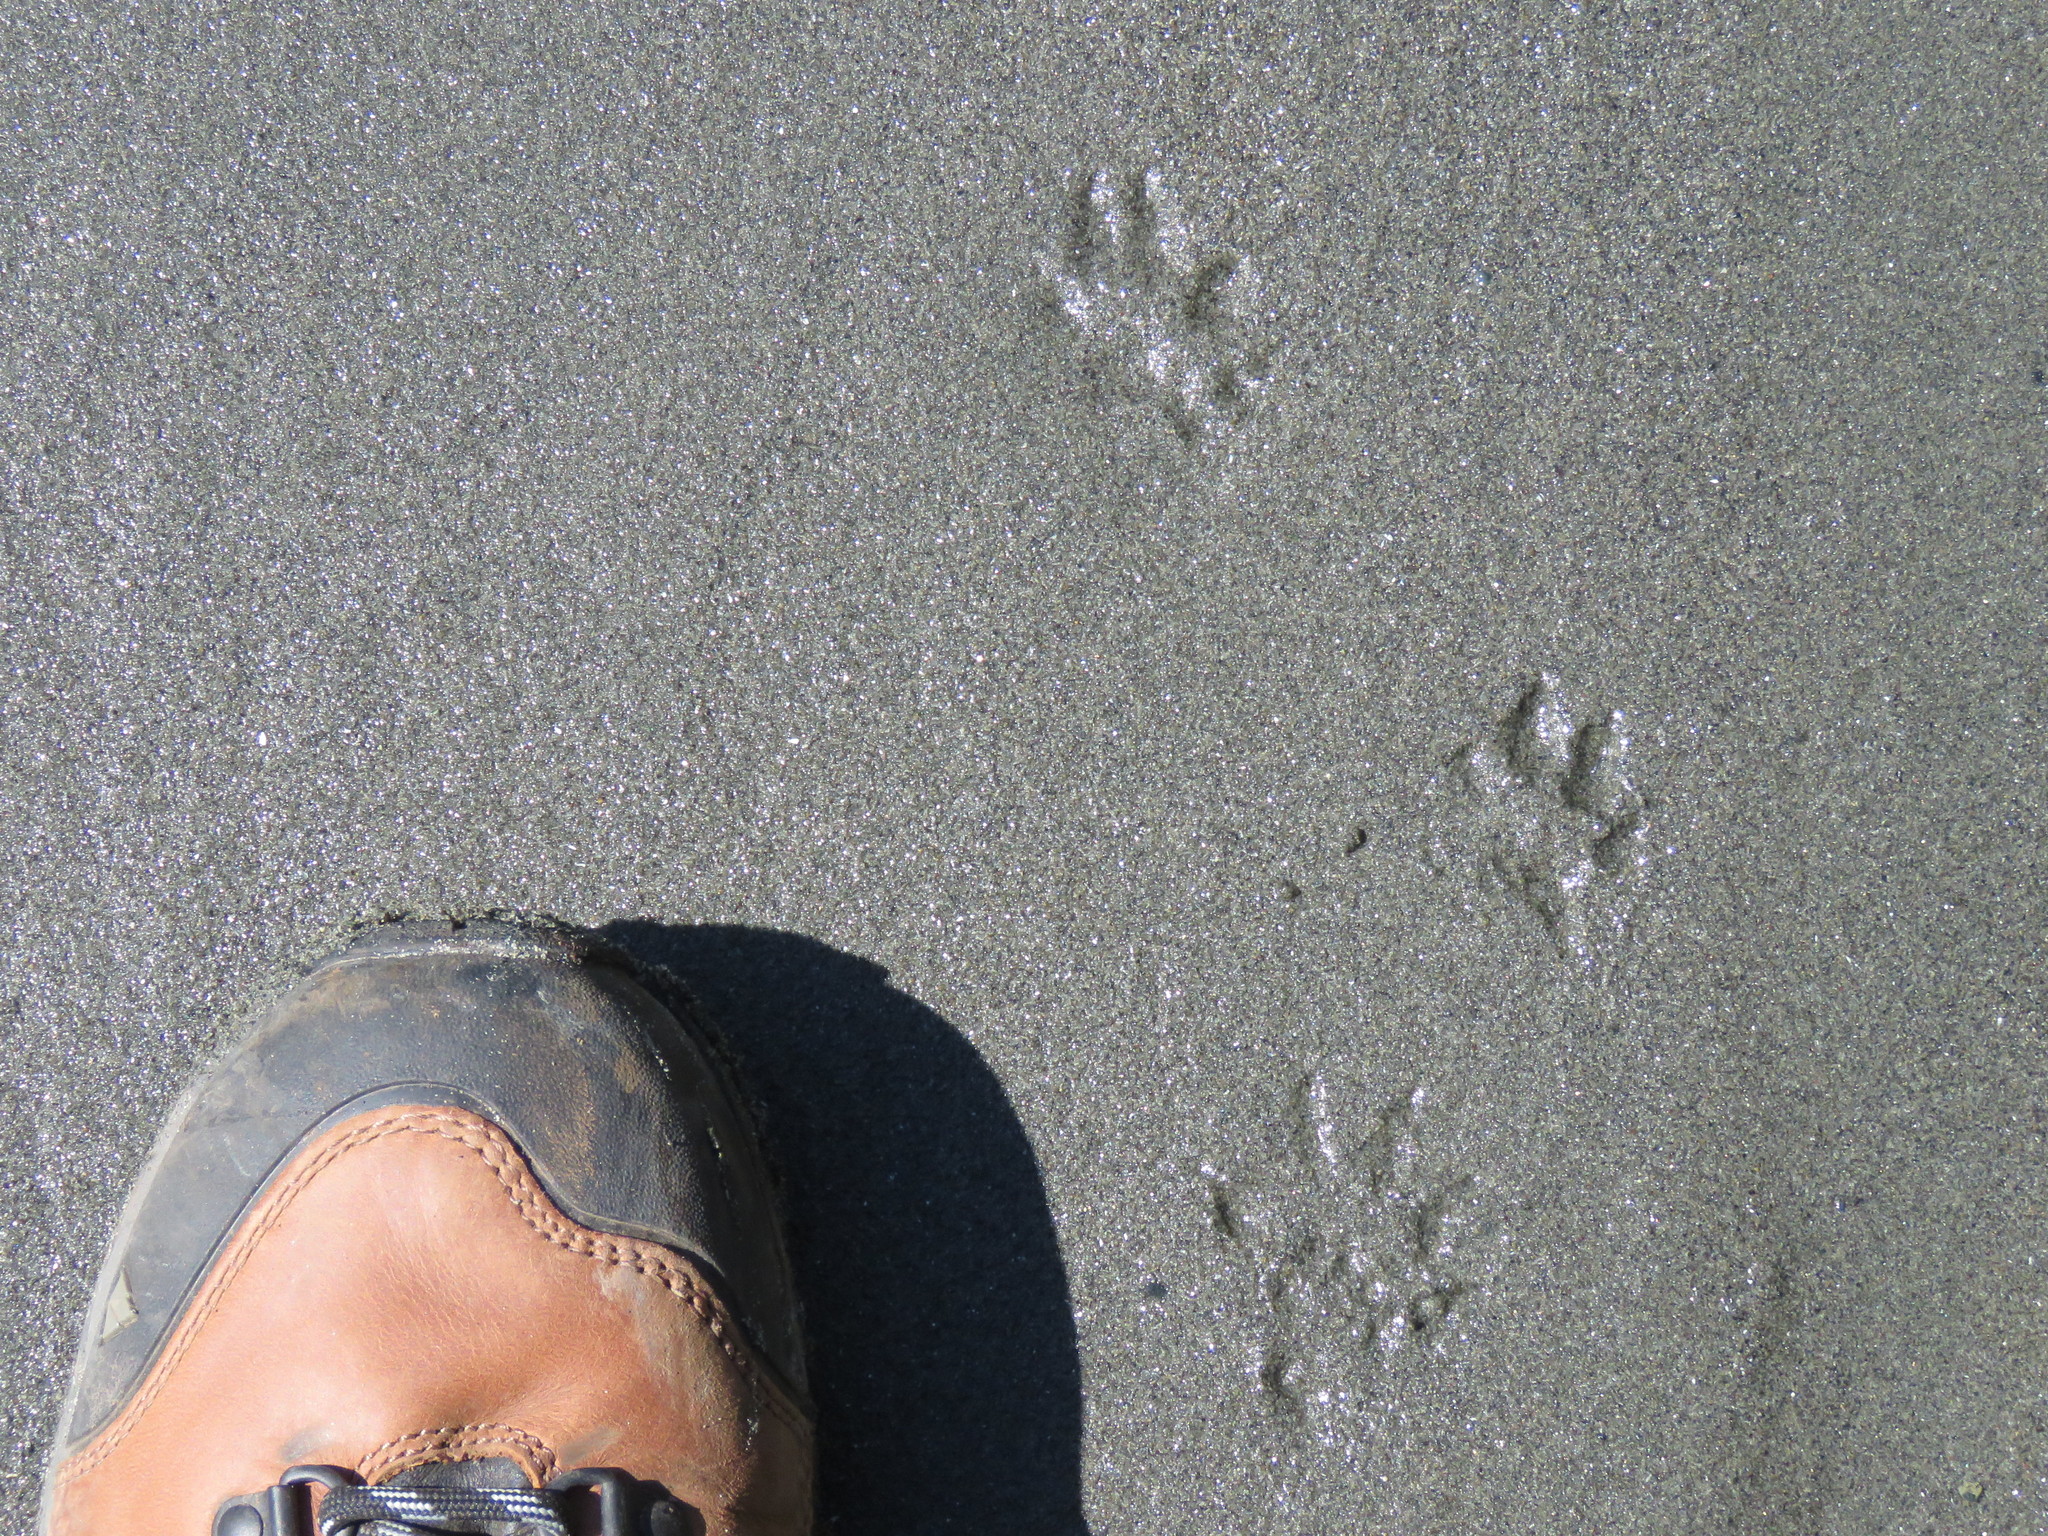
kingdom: Animalia
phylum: Chordata
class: Mammalia
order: Carnivora
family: Mustelidae
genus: Mustela
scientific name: Mustela
